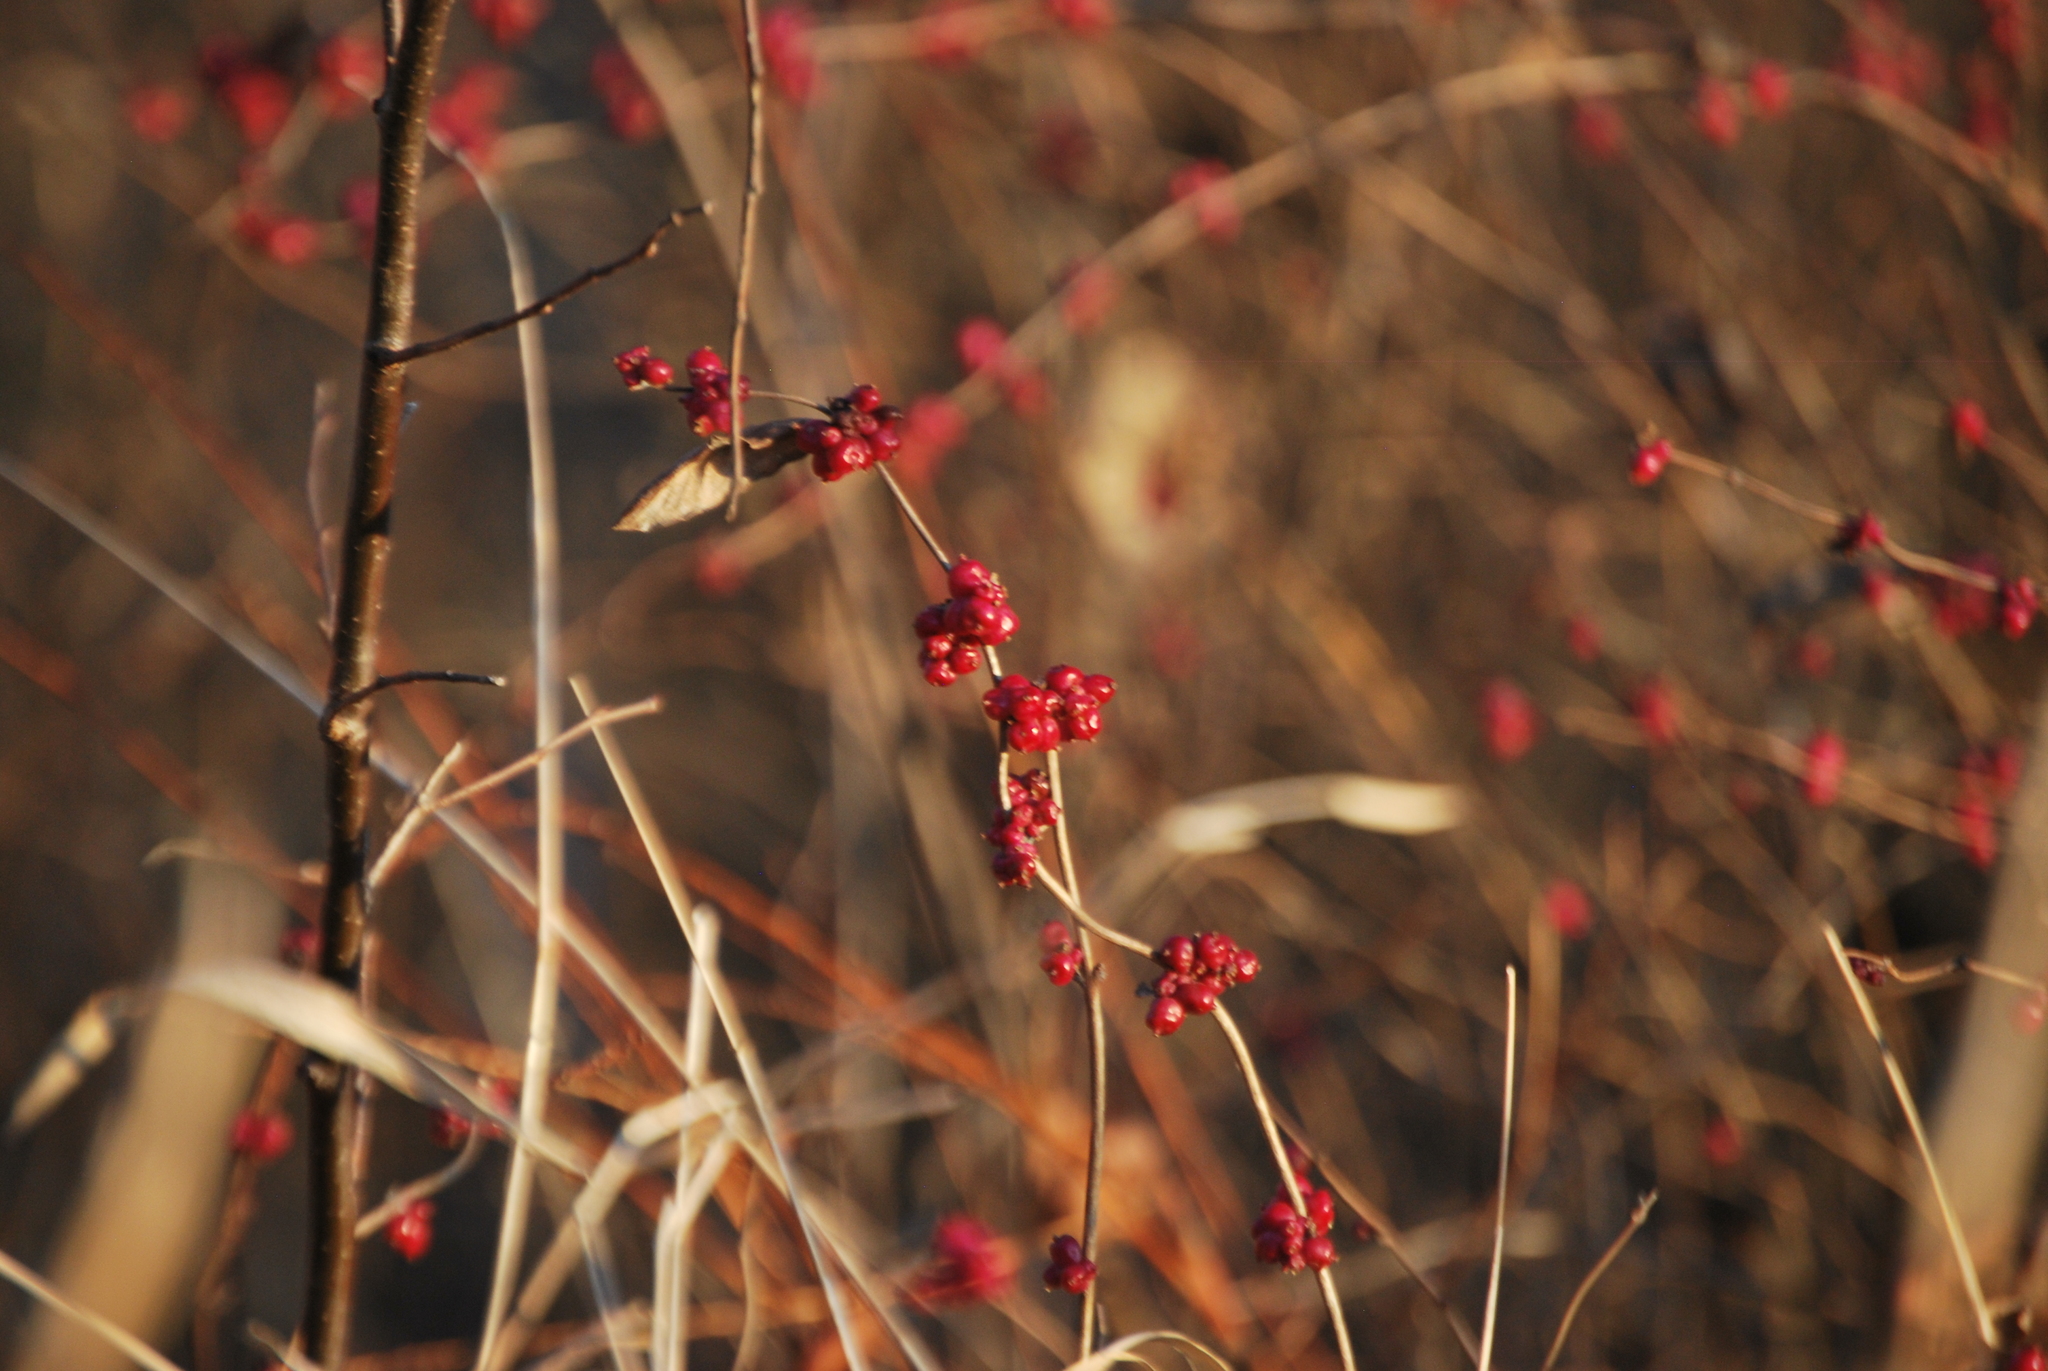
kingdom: Plantae
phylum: Tracheophyta
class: Magnoliopsida
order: Dipsacales
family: Caprifoliaceae
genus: Symphoricarpos
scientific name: Symphoricarpos orbiculatus
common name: Coralberry
